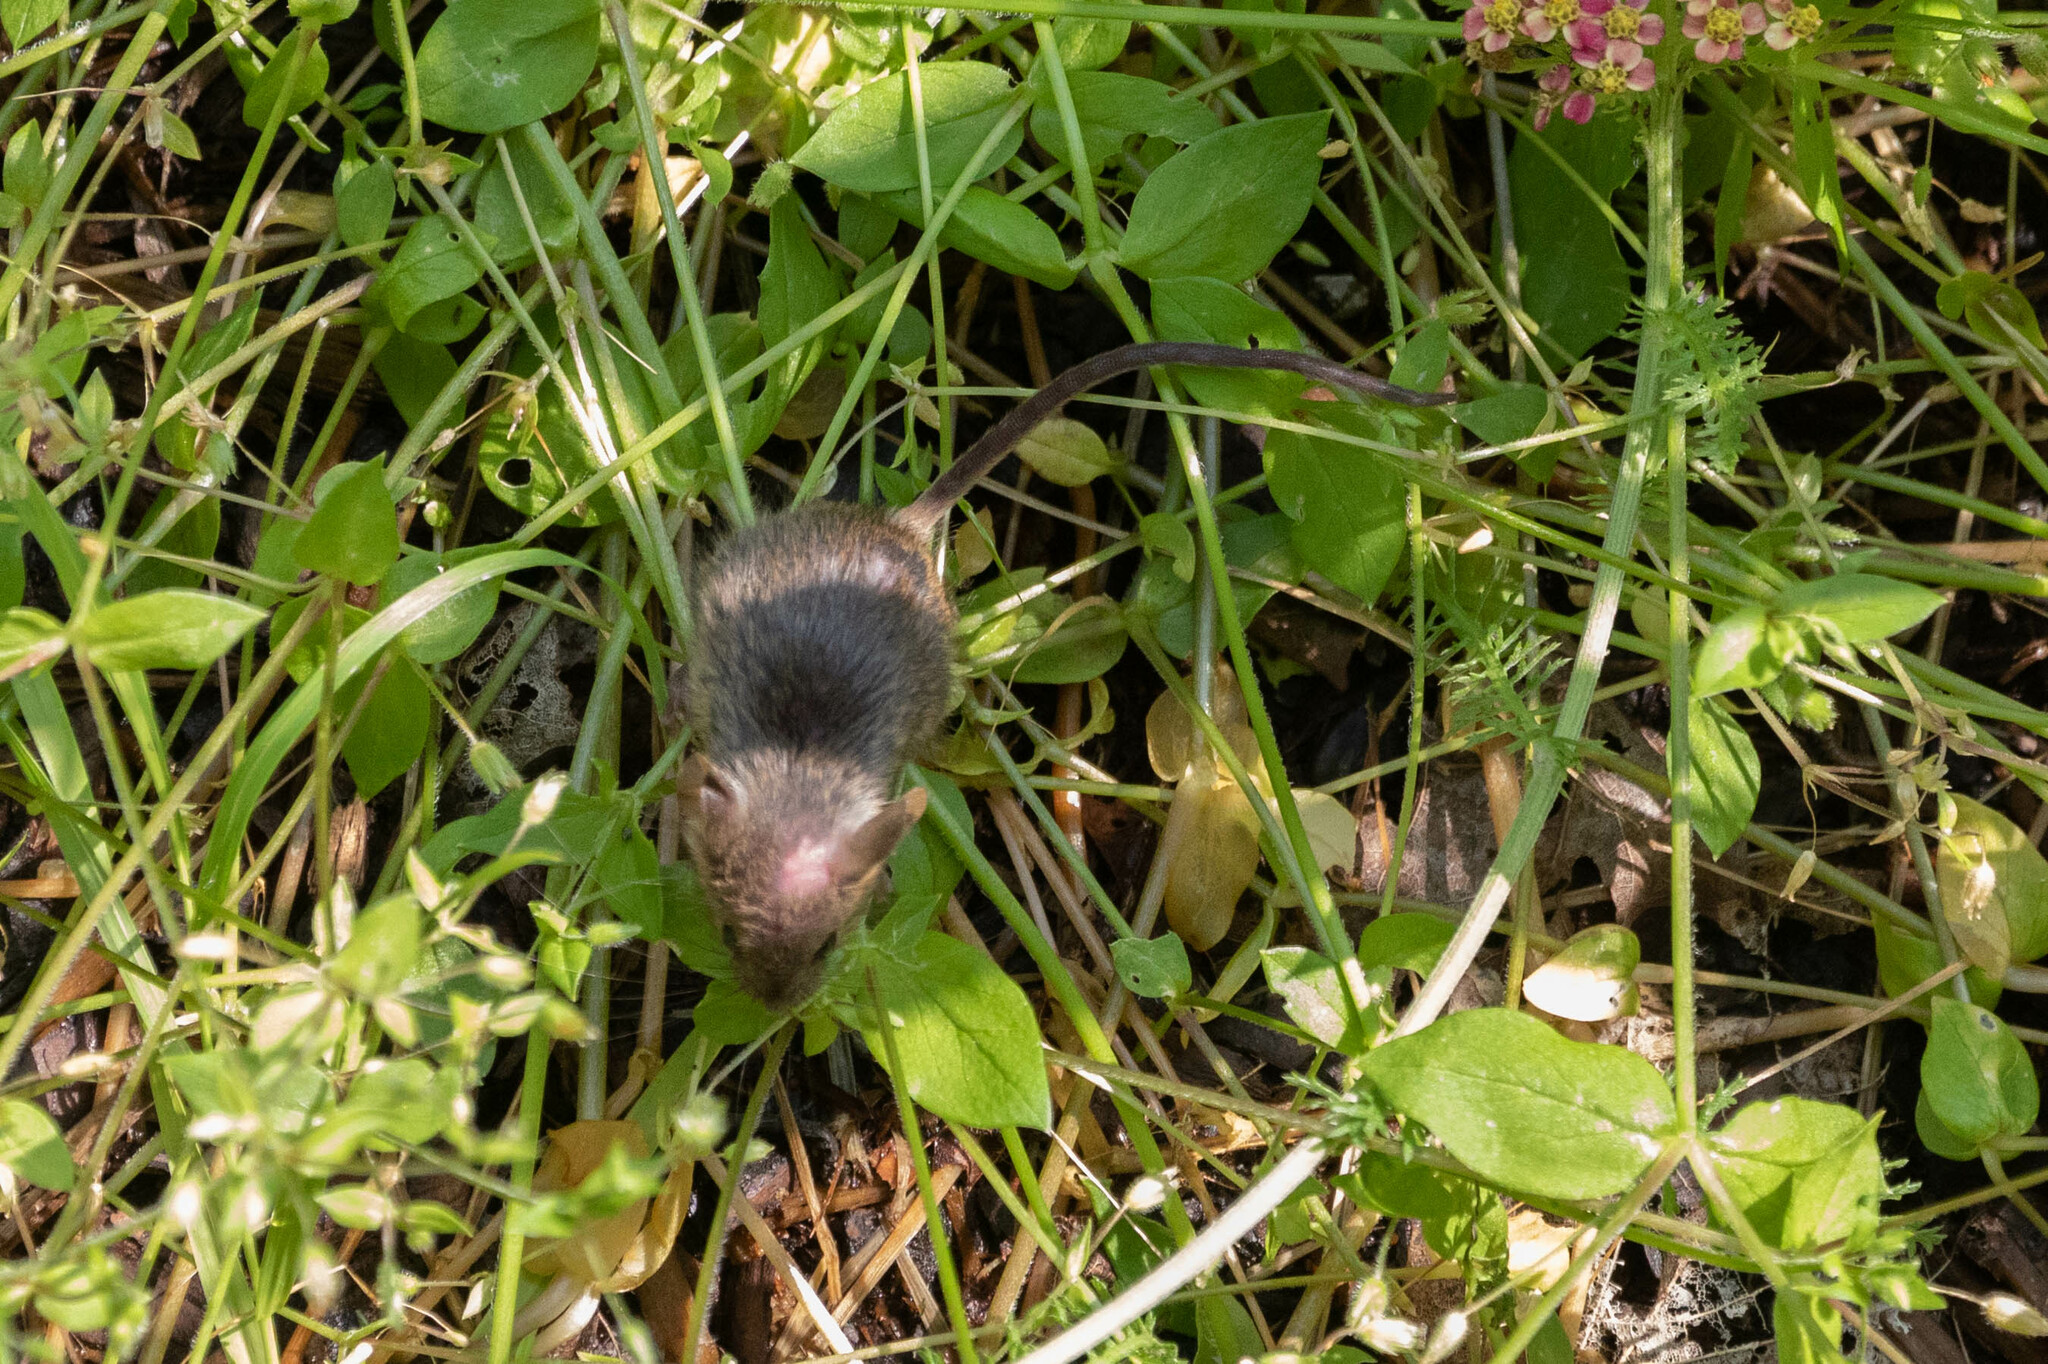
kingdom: Animalia
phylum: Chordata
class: Mammalia
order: Rodentia
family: Muridae
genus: Mus
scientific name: Mus musculus
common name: House mouse
